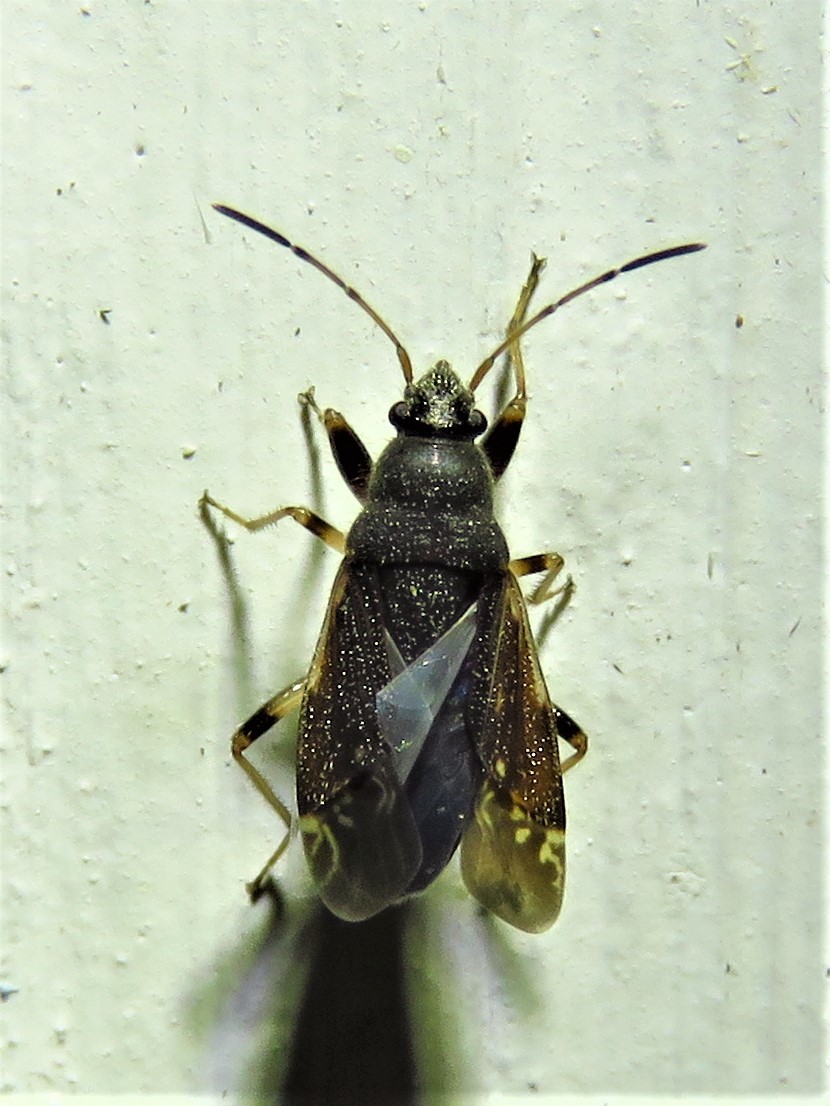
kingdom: Animalia
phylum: Arthropoda
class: Insecta
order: Hemiptera
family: Rhyparochromidae
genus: Perigenes
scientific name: Perigenes similis
